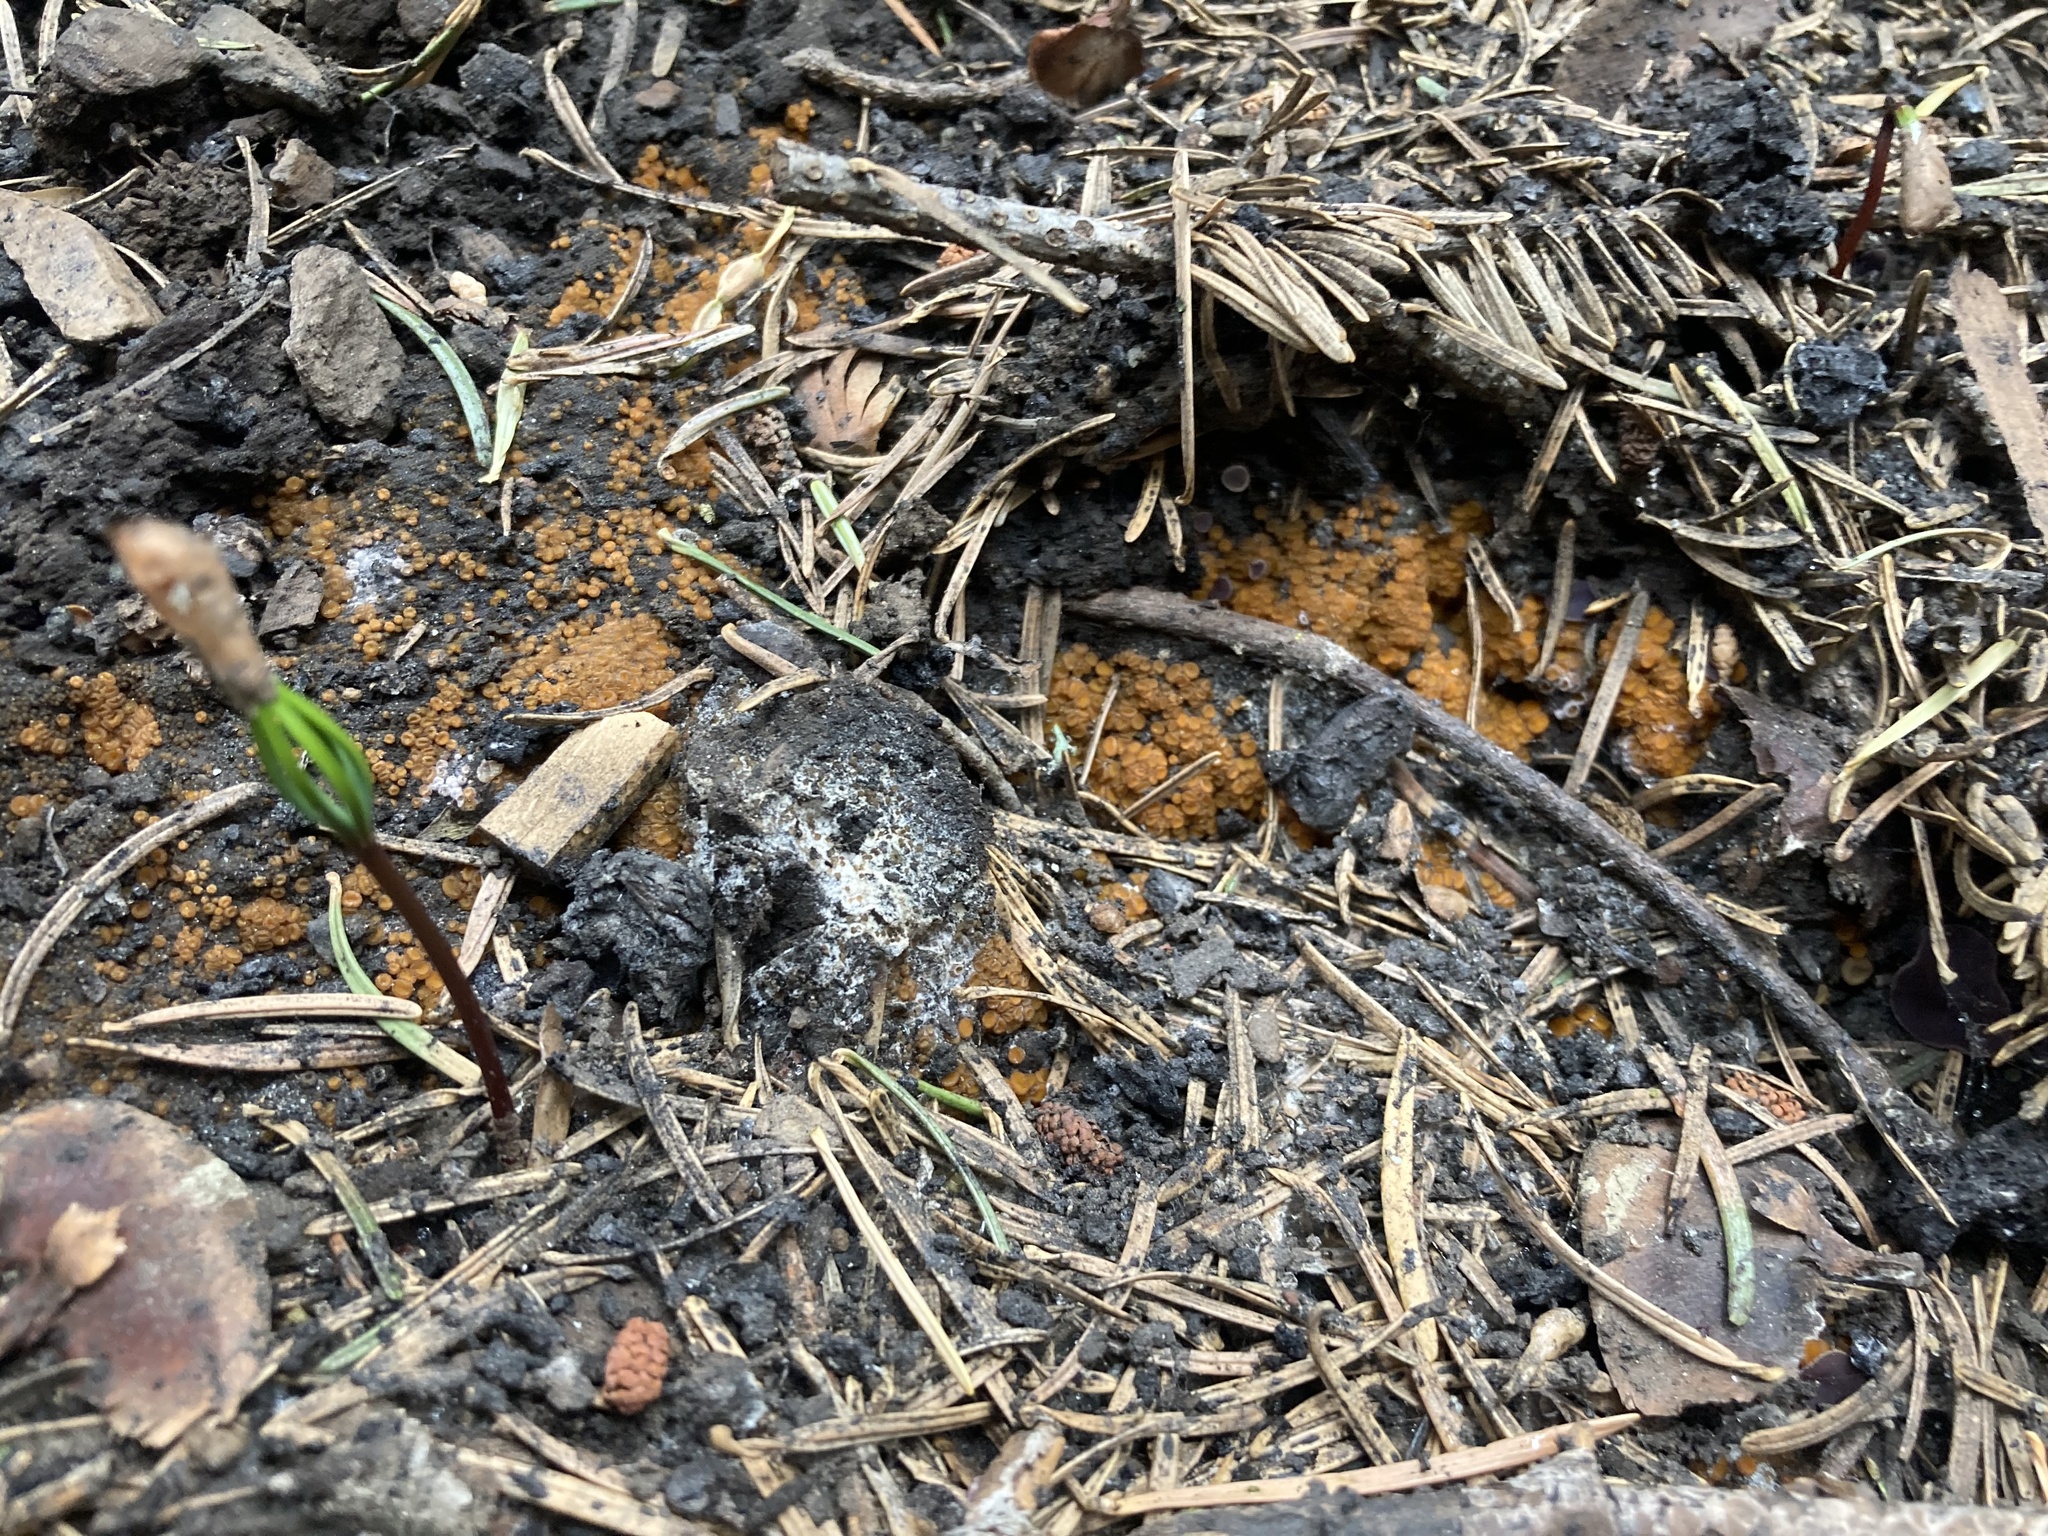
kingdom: Fungi
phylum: Ascomycota
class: Pezizomycetes
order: Pezizales
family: Pyronemataceae
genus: Anthracobia
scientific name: Anthracobia melaloma
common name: Charcoal eyelash
